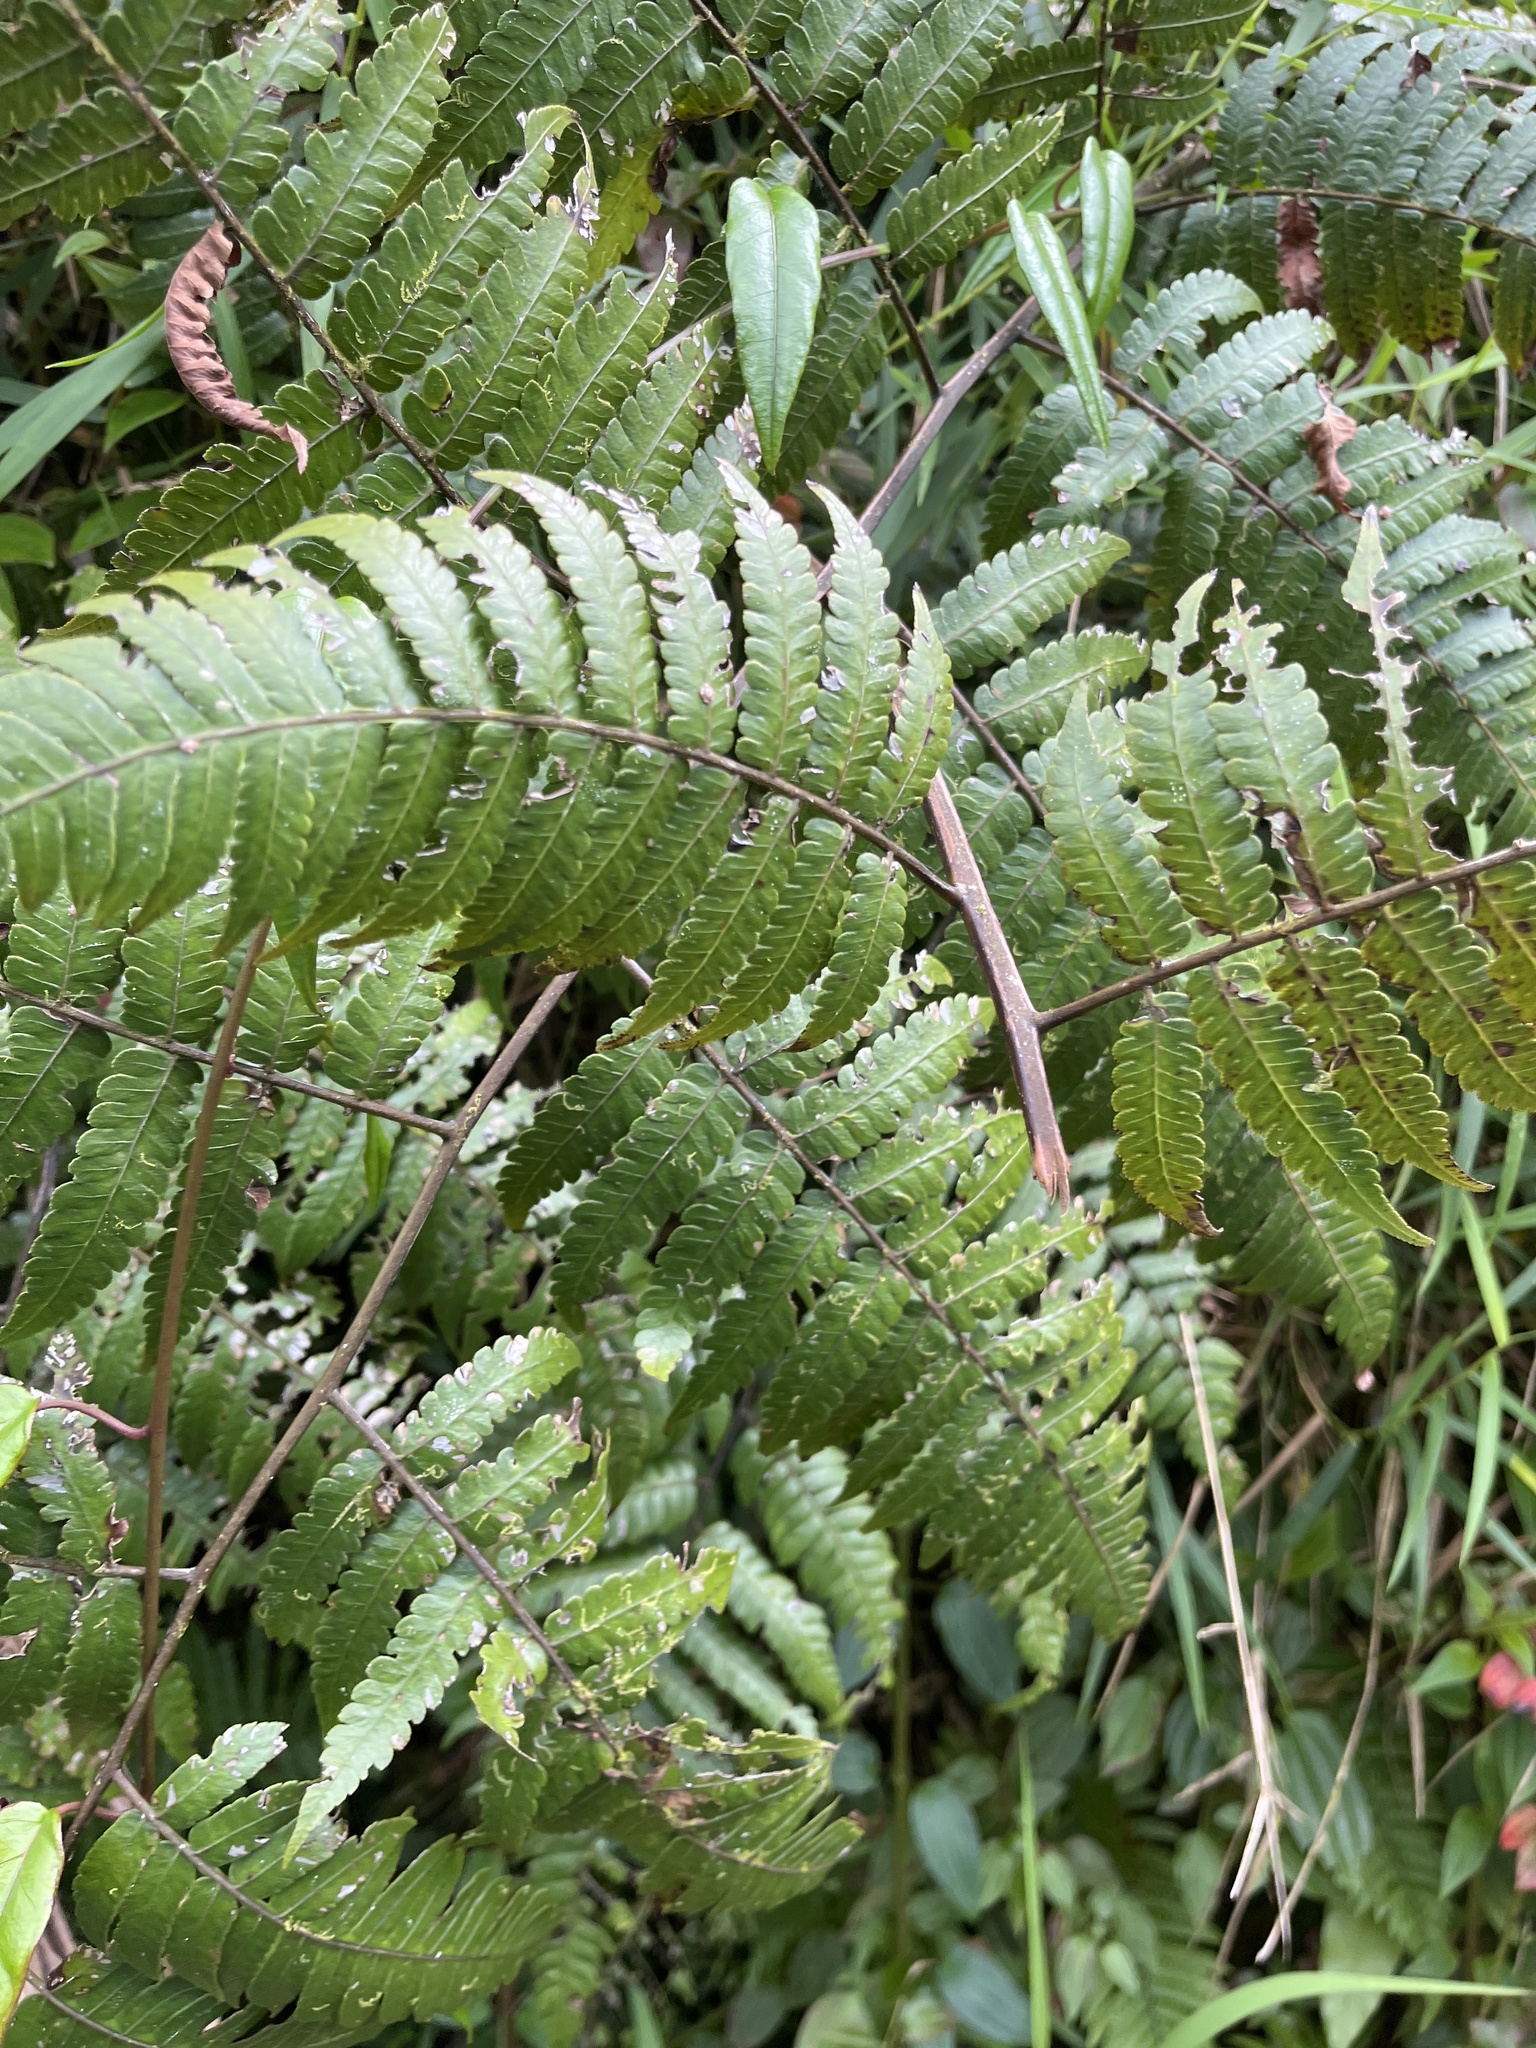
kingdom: Plantae
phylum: Tracheophyta
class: Polypodiopsida
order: Cyatheales
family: Cyatheaceae
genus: Cyathea
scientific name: Cyathea borinquena
